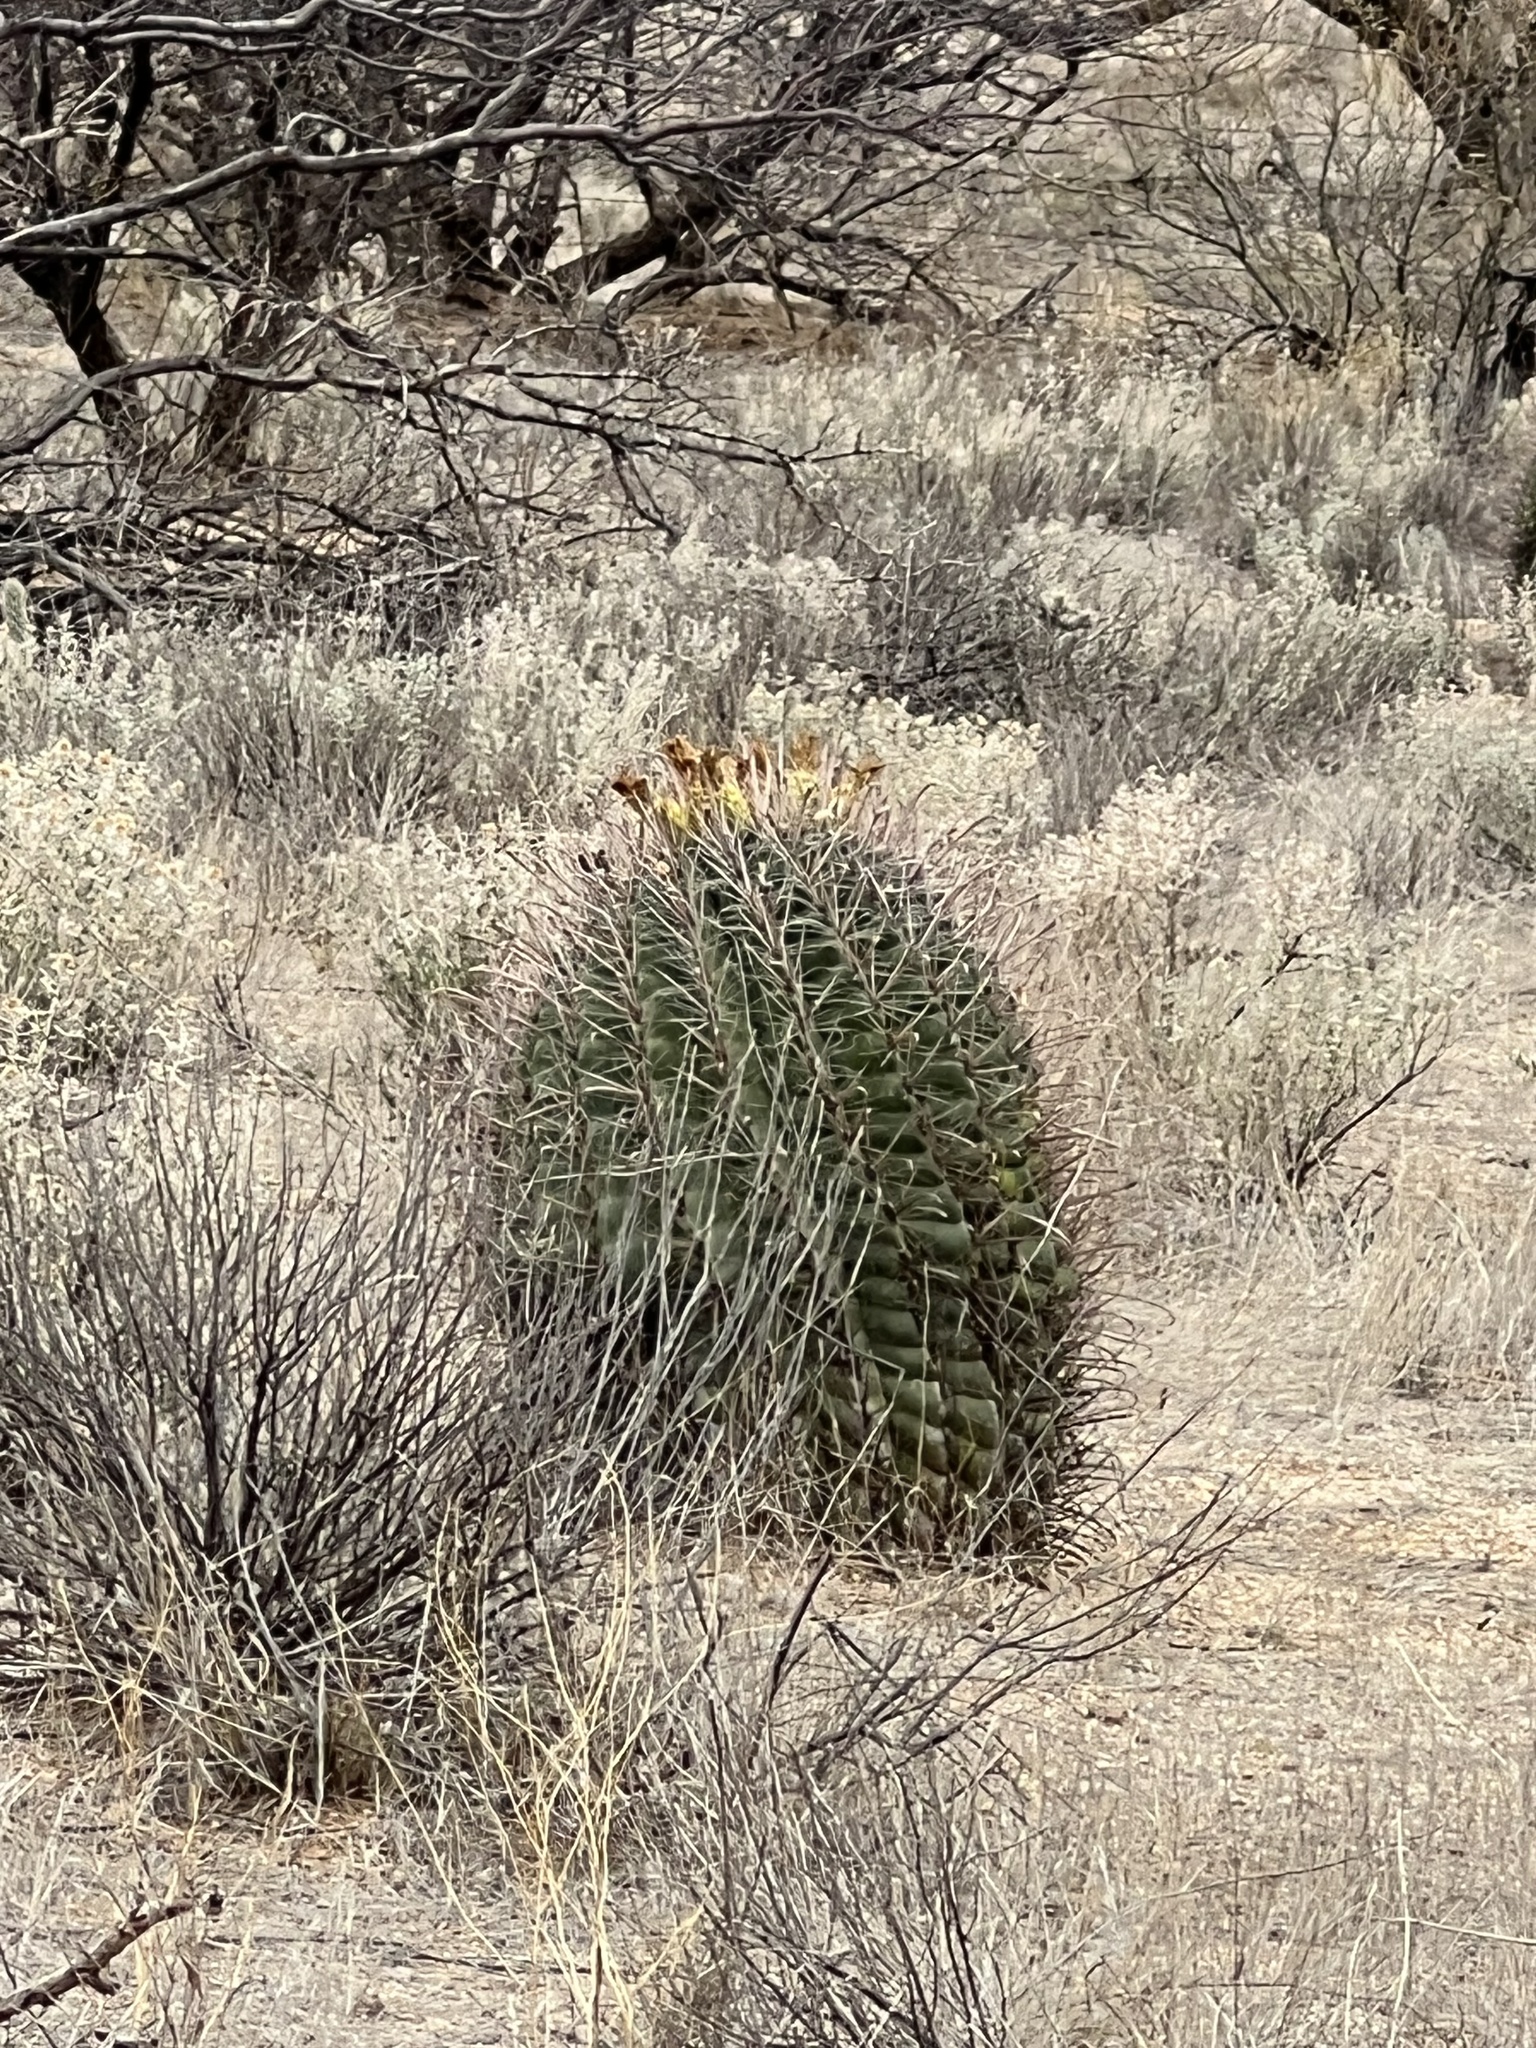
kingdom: Plantae
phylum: Tracheophyta
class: Magnoliopsida
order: Caryophyllales
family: Cactaceae
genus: Ferocactus
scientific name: Ferocactus wislizeni
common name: Candy barrel cactus
